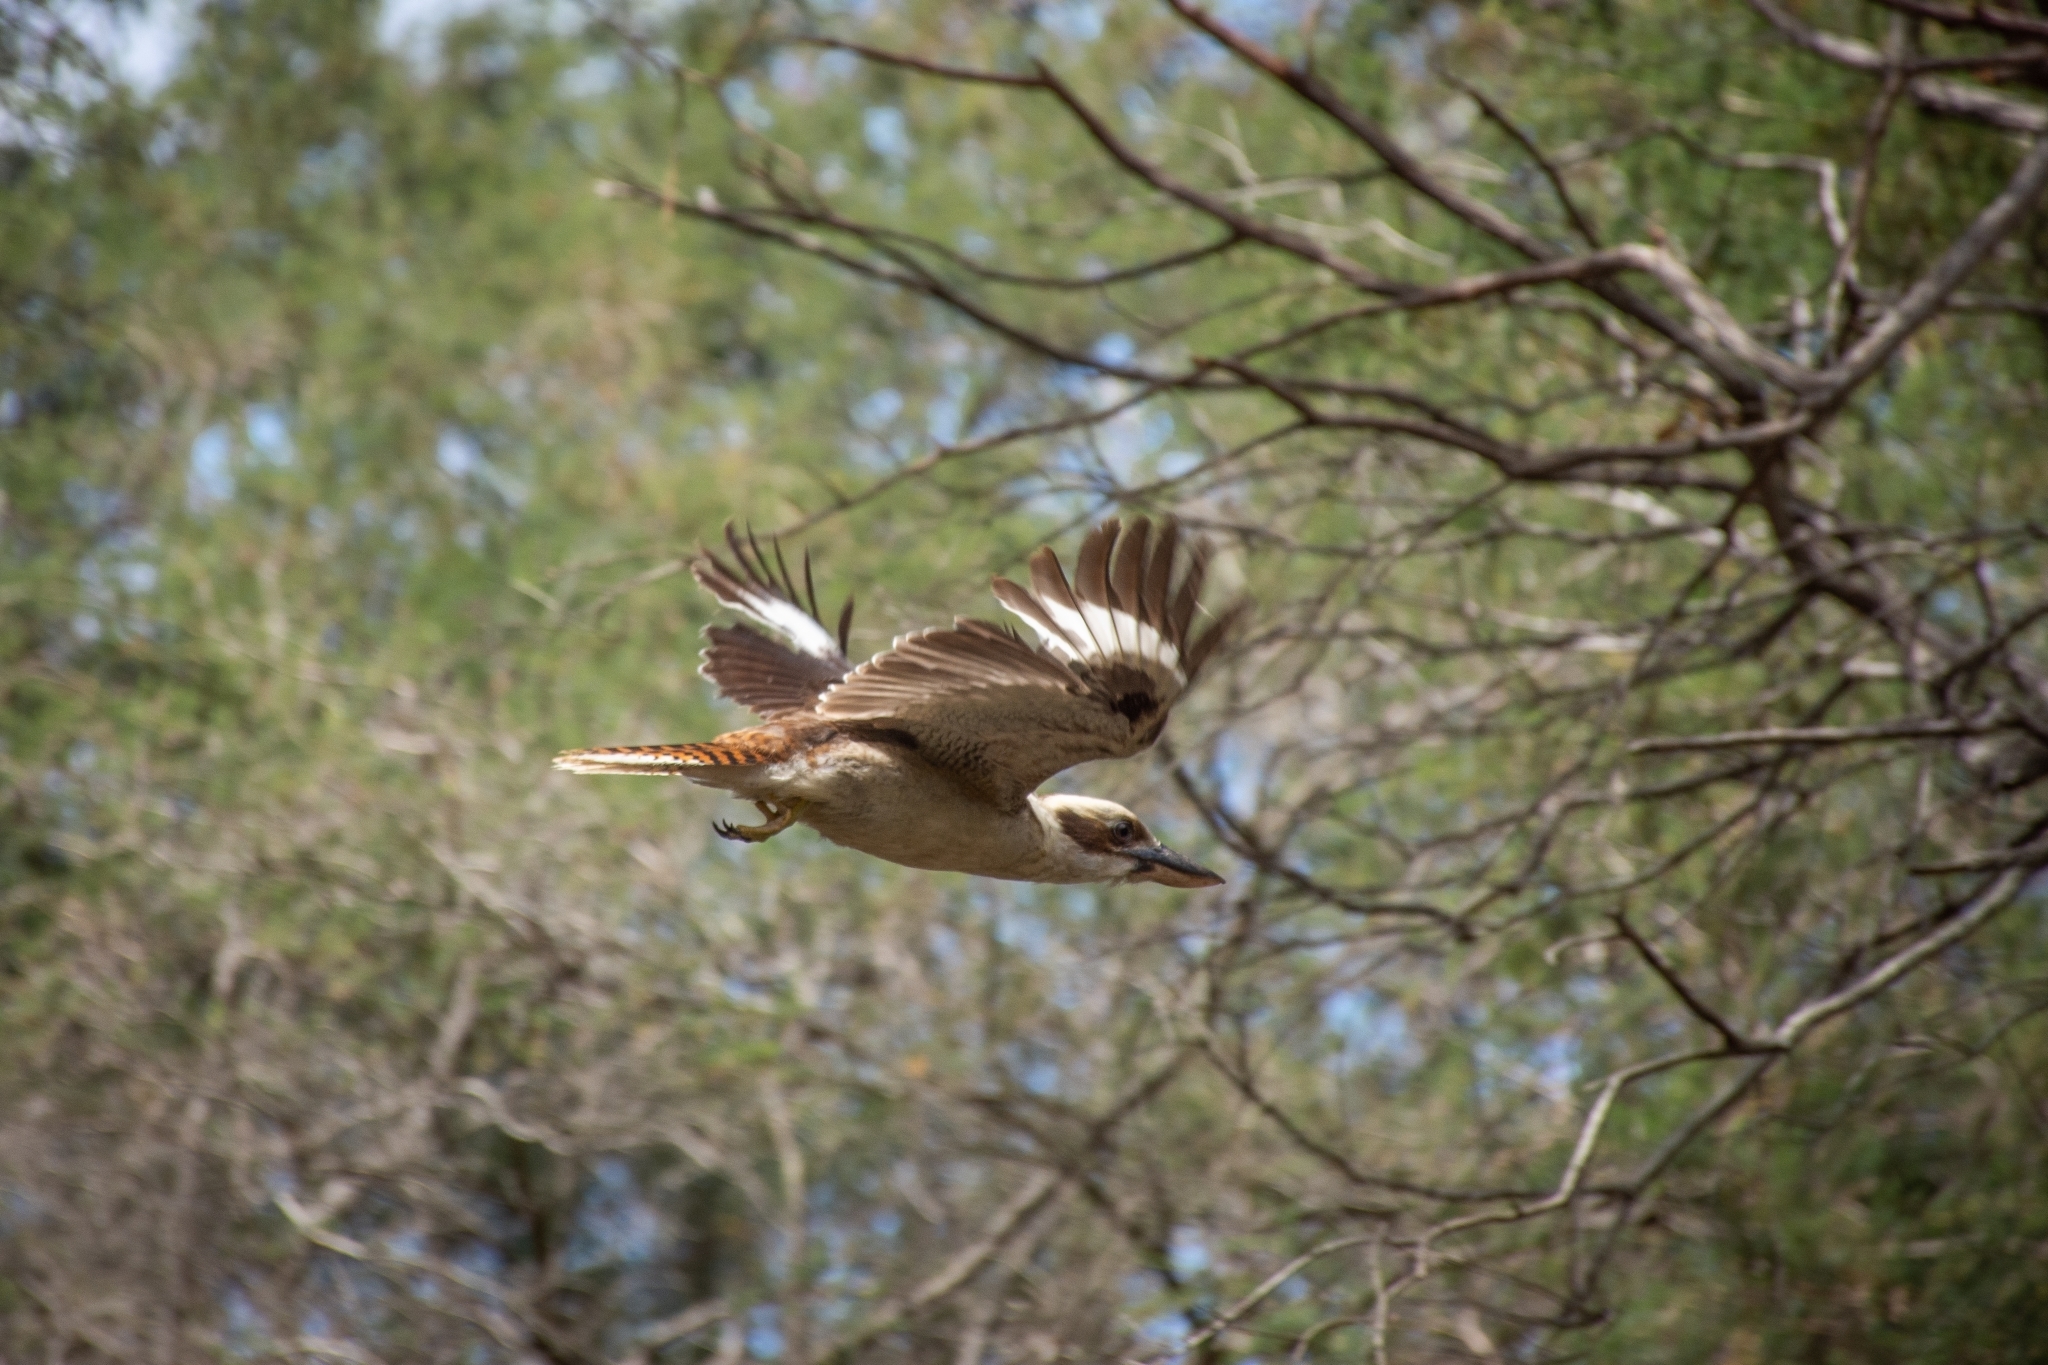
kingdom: Animalia
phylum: Chordata
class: Aves
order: Coraciiformes
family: Alcedinidae
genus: Dacelo
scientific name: Dacelo novaeguineae
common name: Laughing kookaburra
